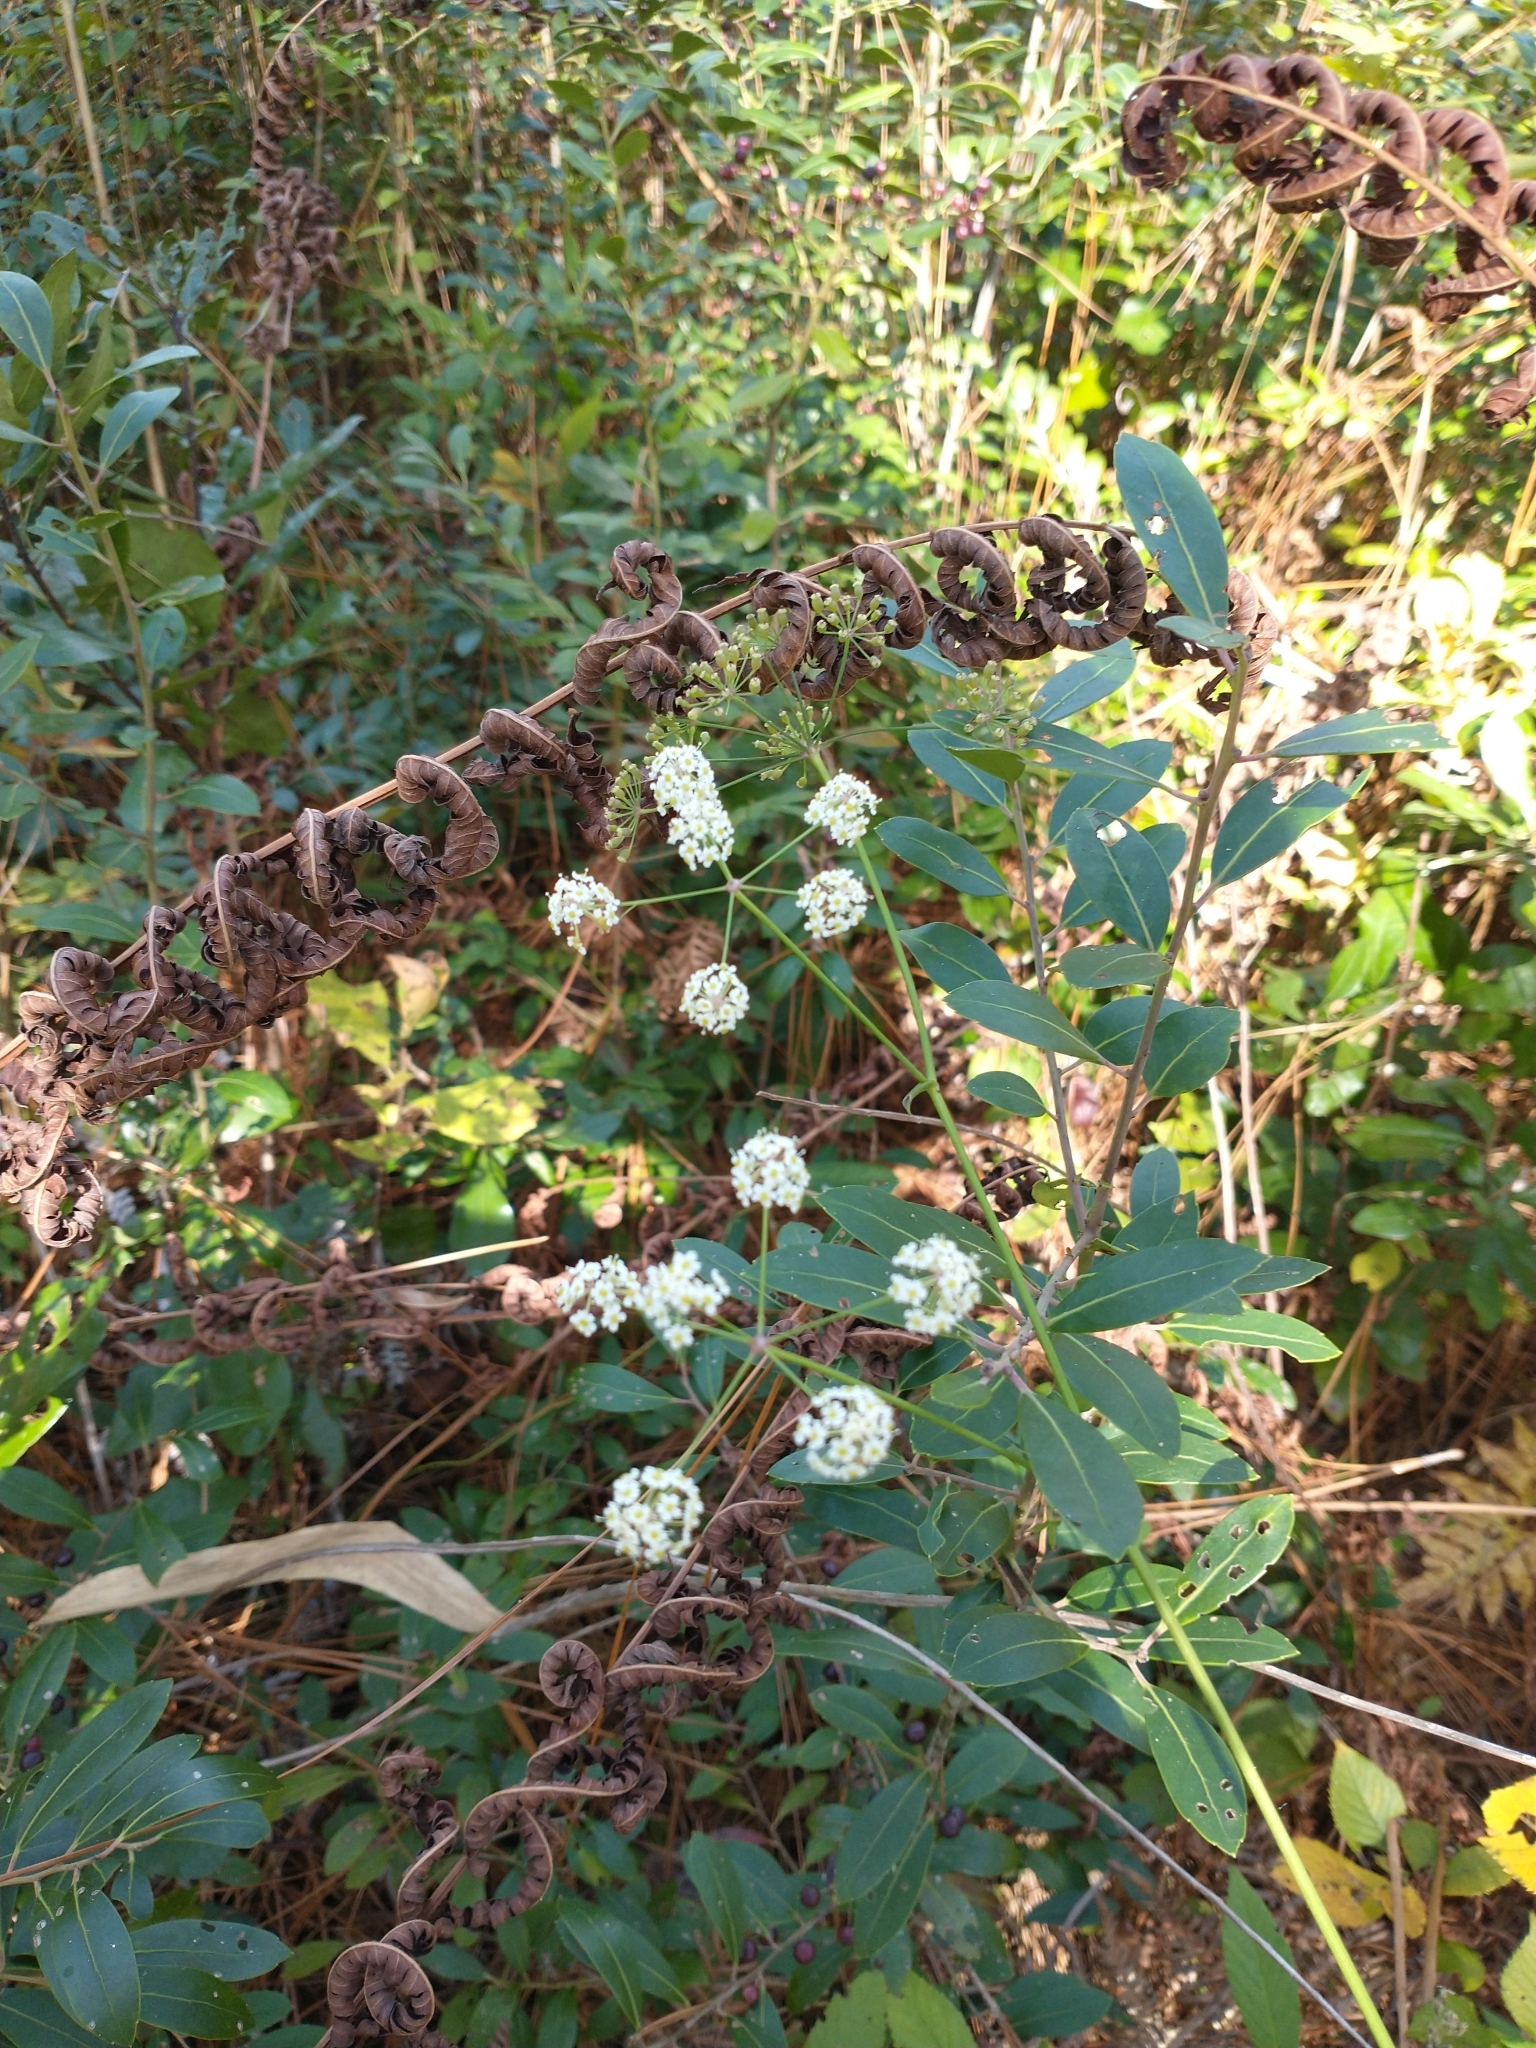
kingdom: Plantae
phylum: Tracheophyta
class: Magnoliopsida
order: Apiales
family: Apiaceae
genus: Oxypolis
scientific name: Oxypolis rigidior
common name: Cowbane
